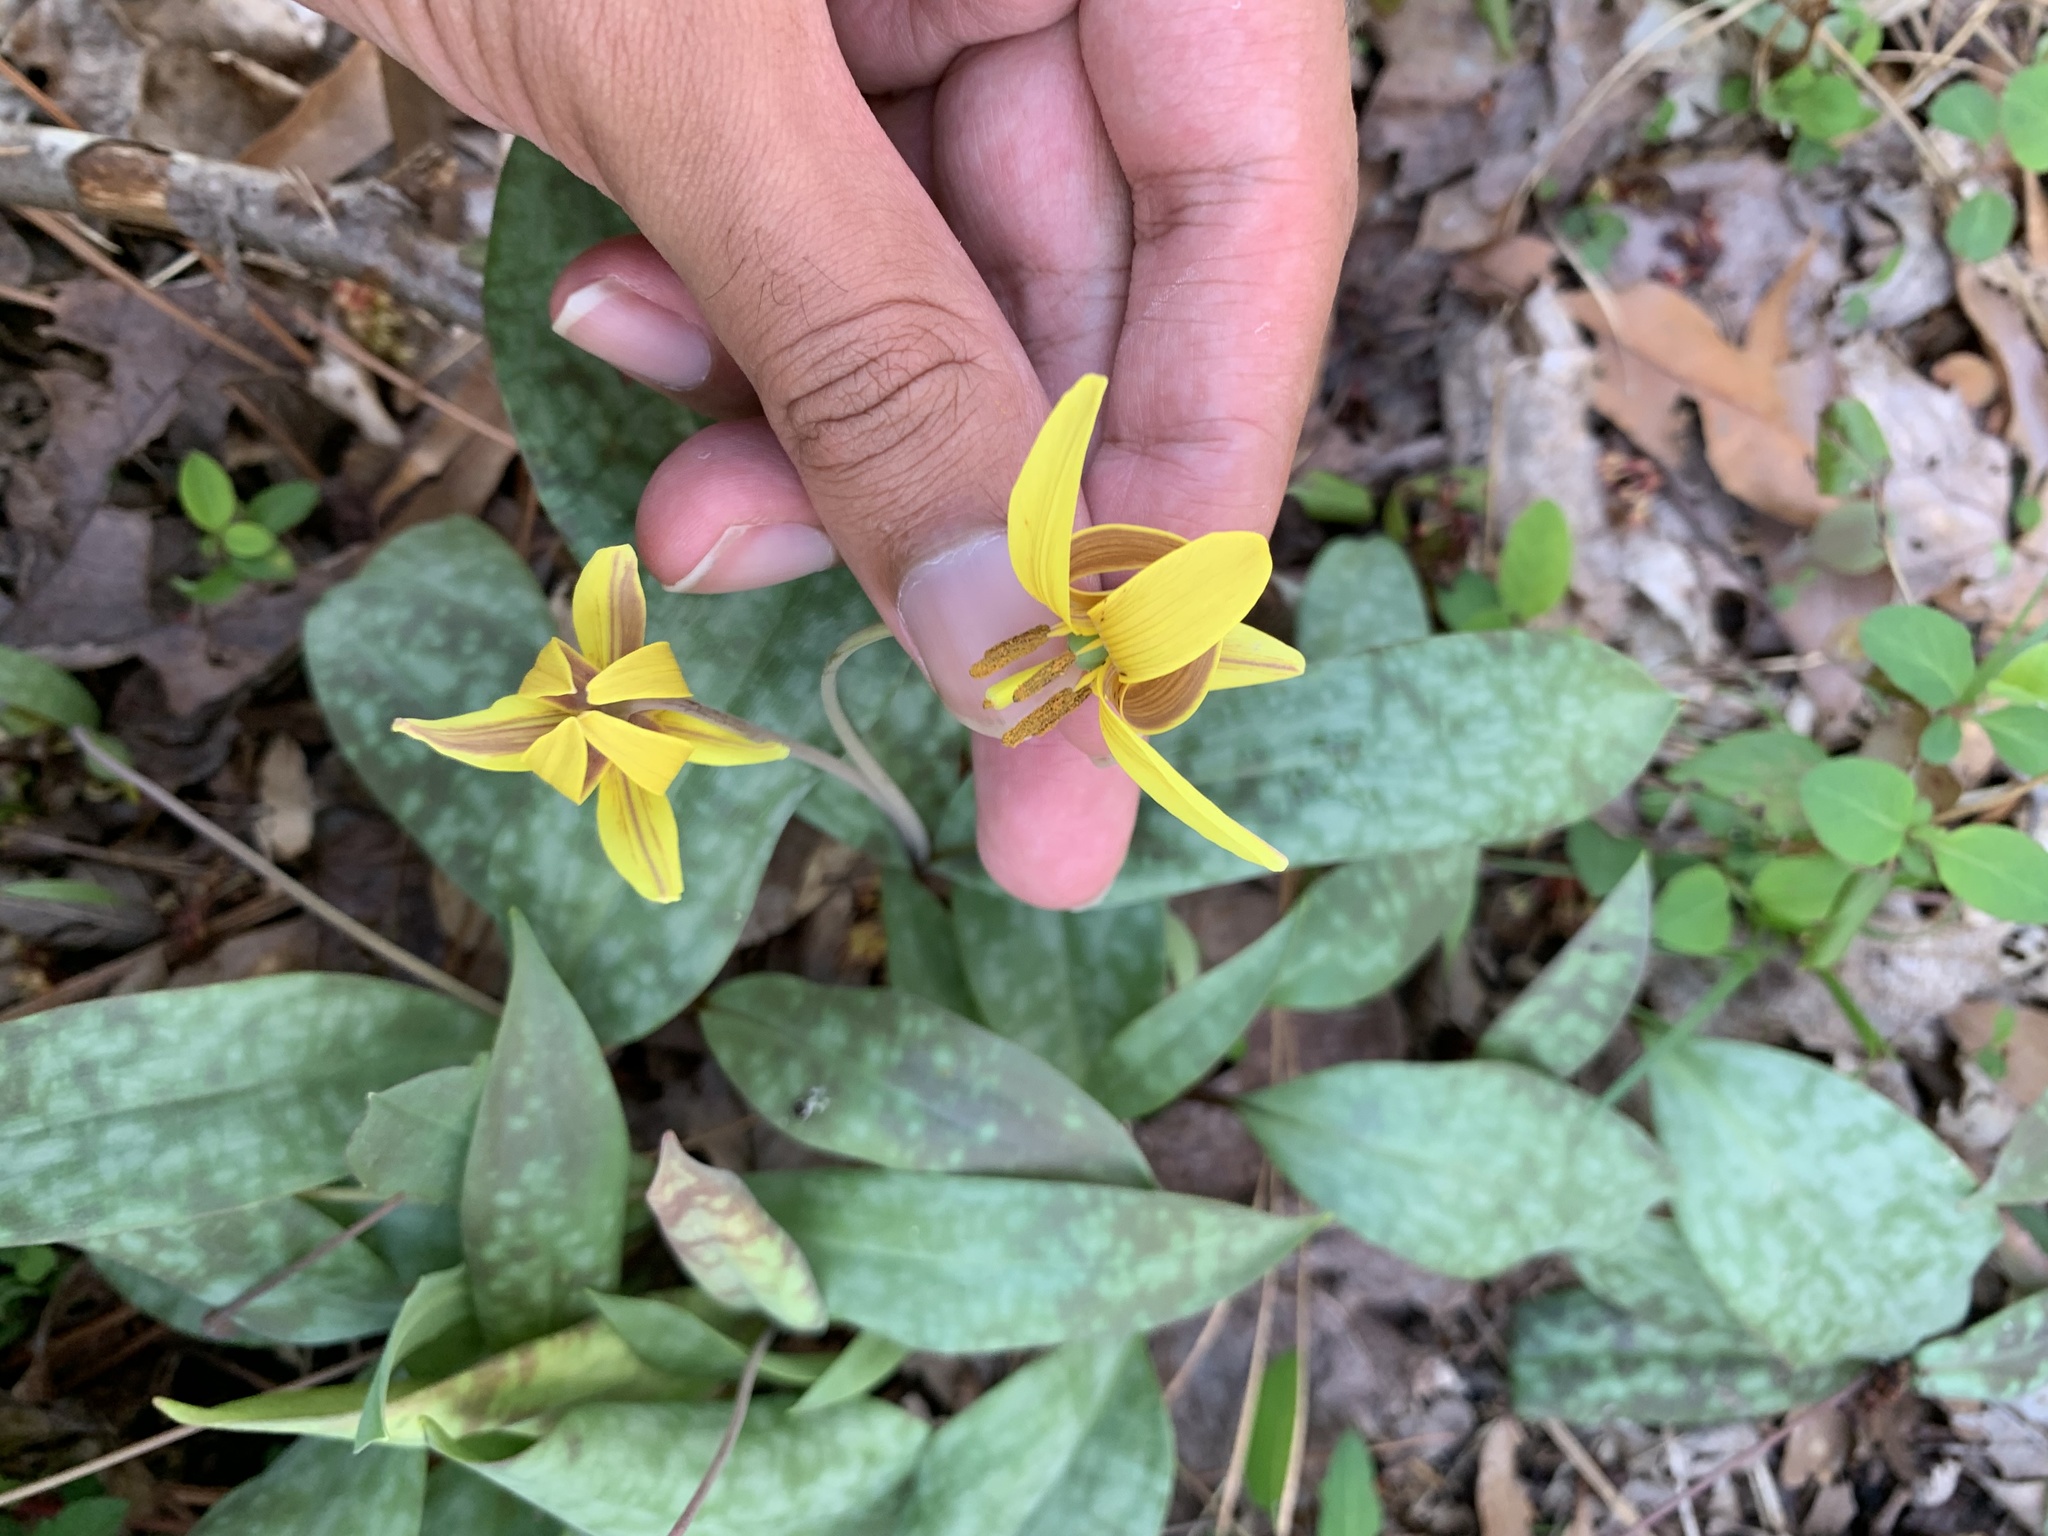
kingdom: Plantae
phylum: Tracheophyta
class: Liliopsida
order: Liliales
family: Liliaceae
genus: Erythronium
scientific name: Erythronium umbilicatum
